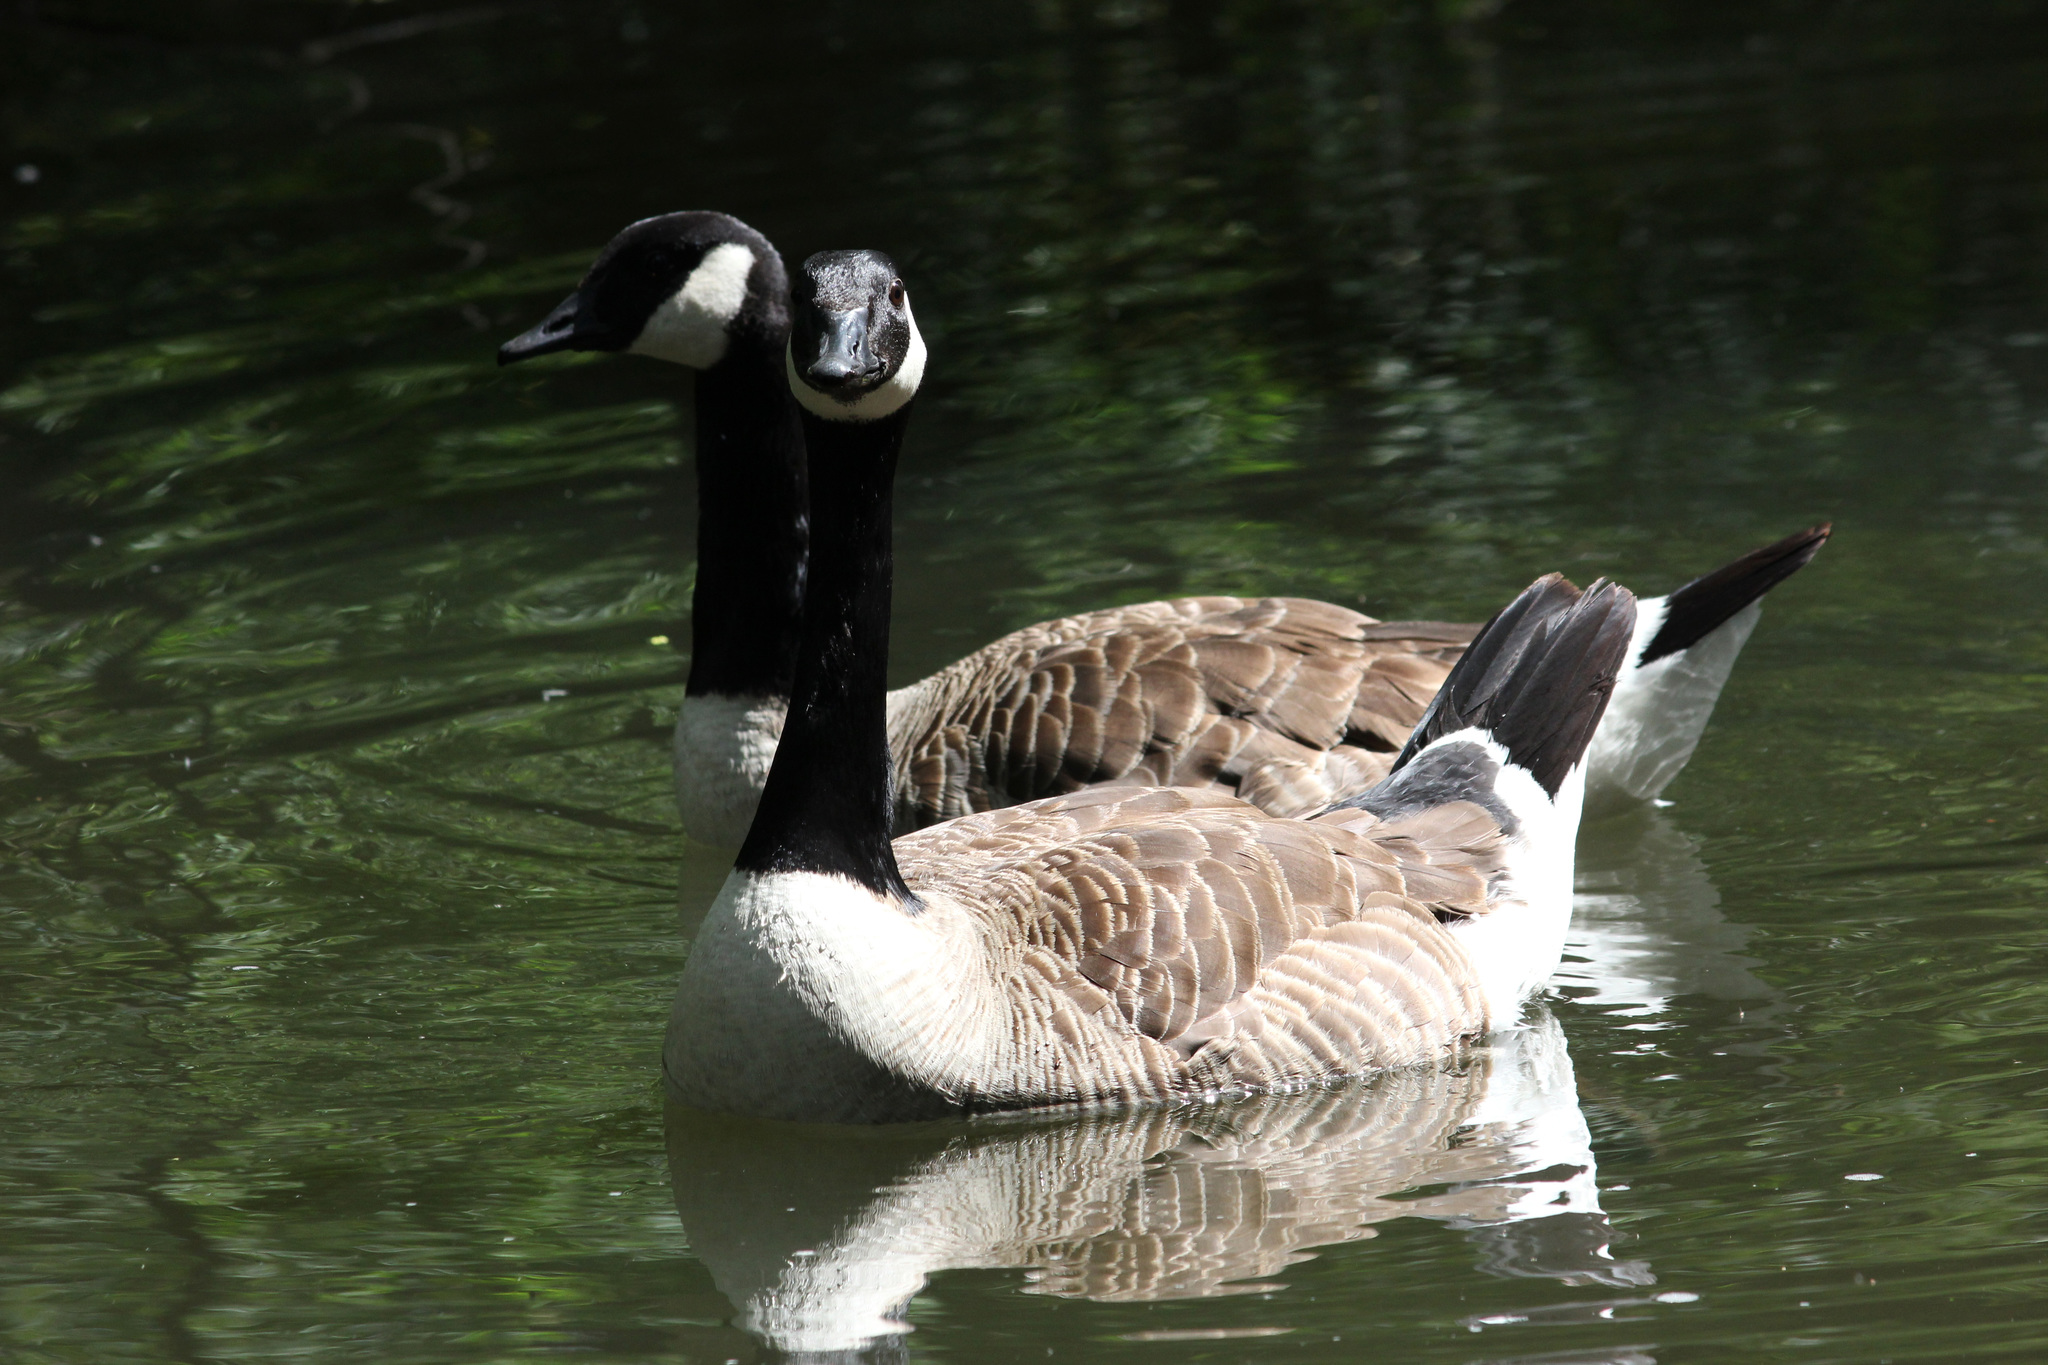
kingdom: Animalia
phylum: Chordata
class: Aves
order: Anseriformes
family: Anatidae
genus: Branta
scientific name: Branta canadensis
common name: Canada goose
